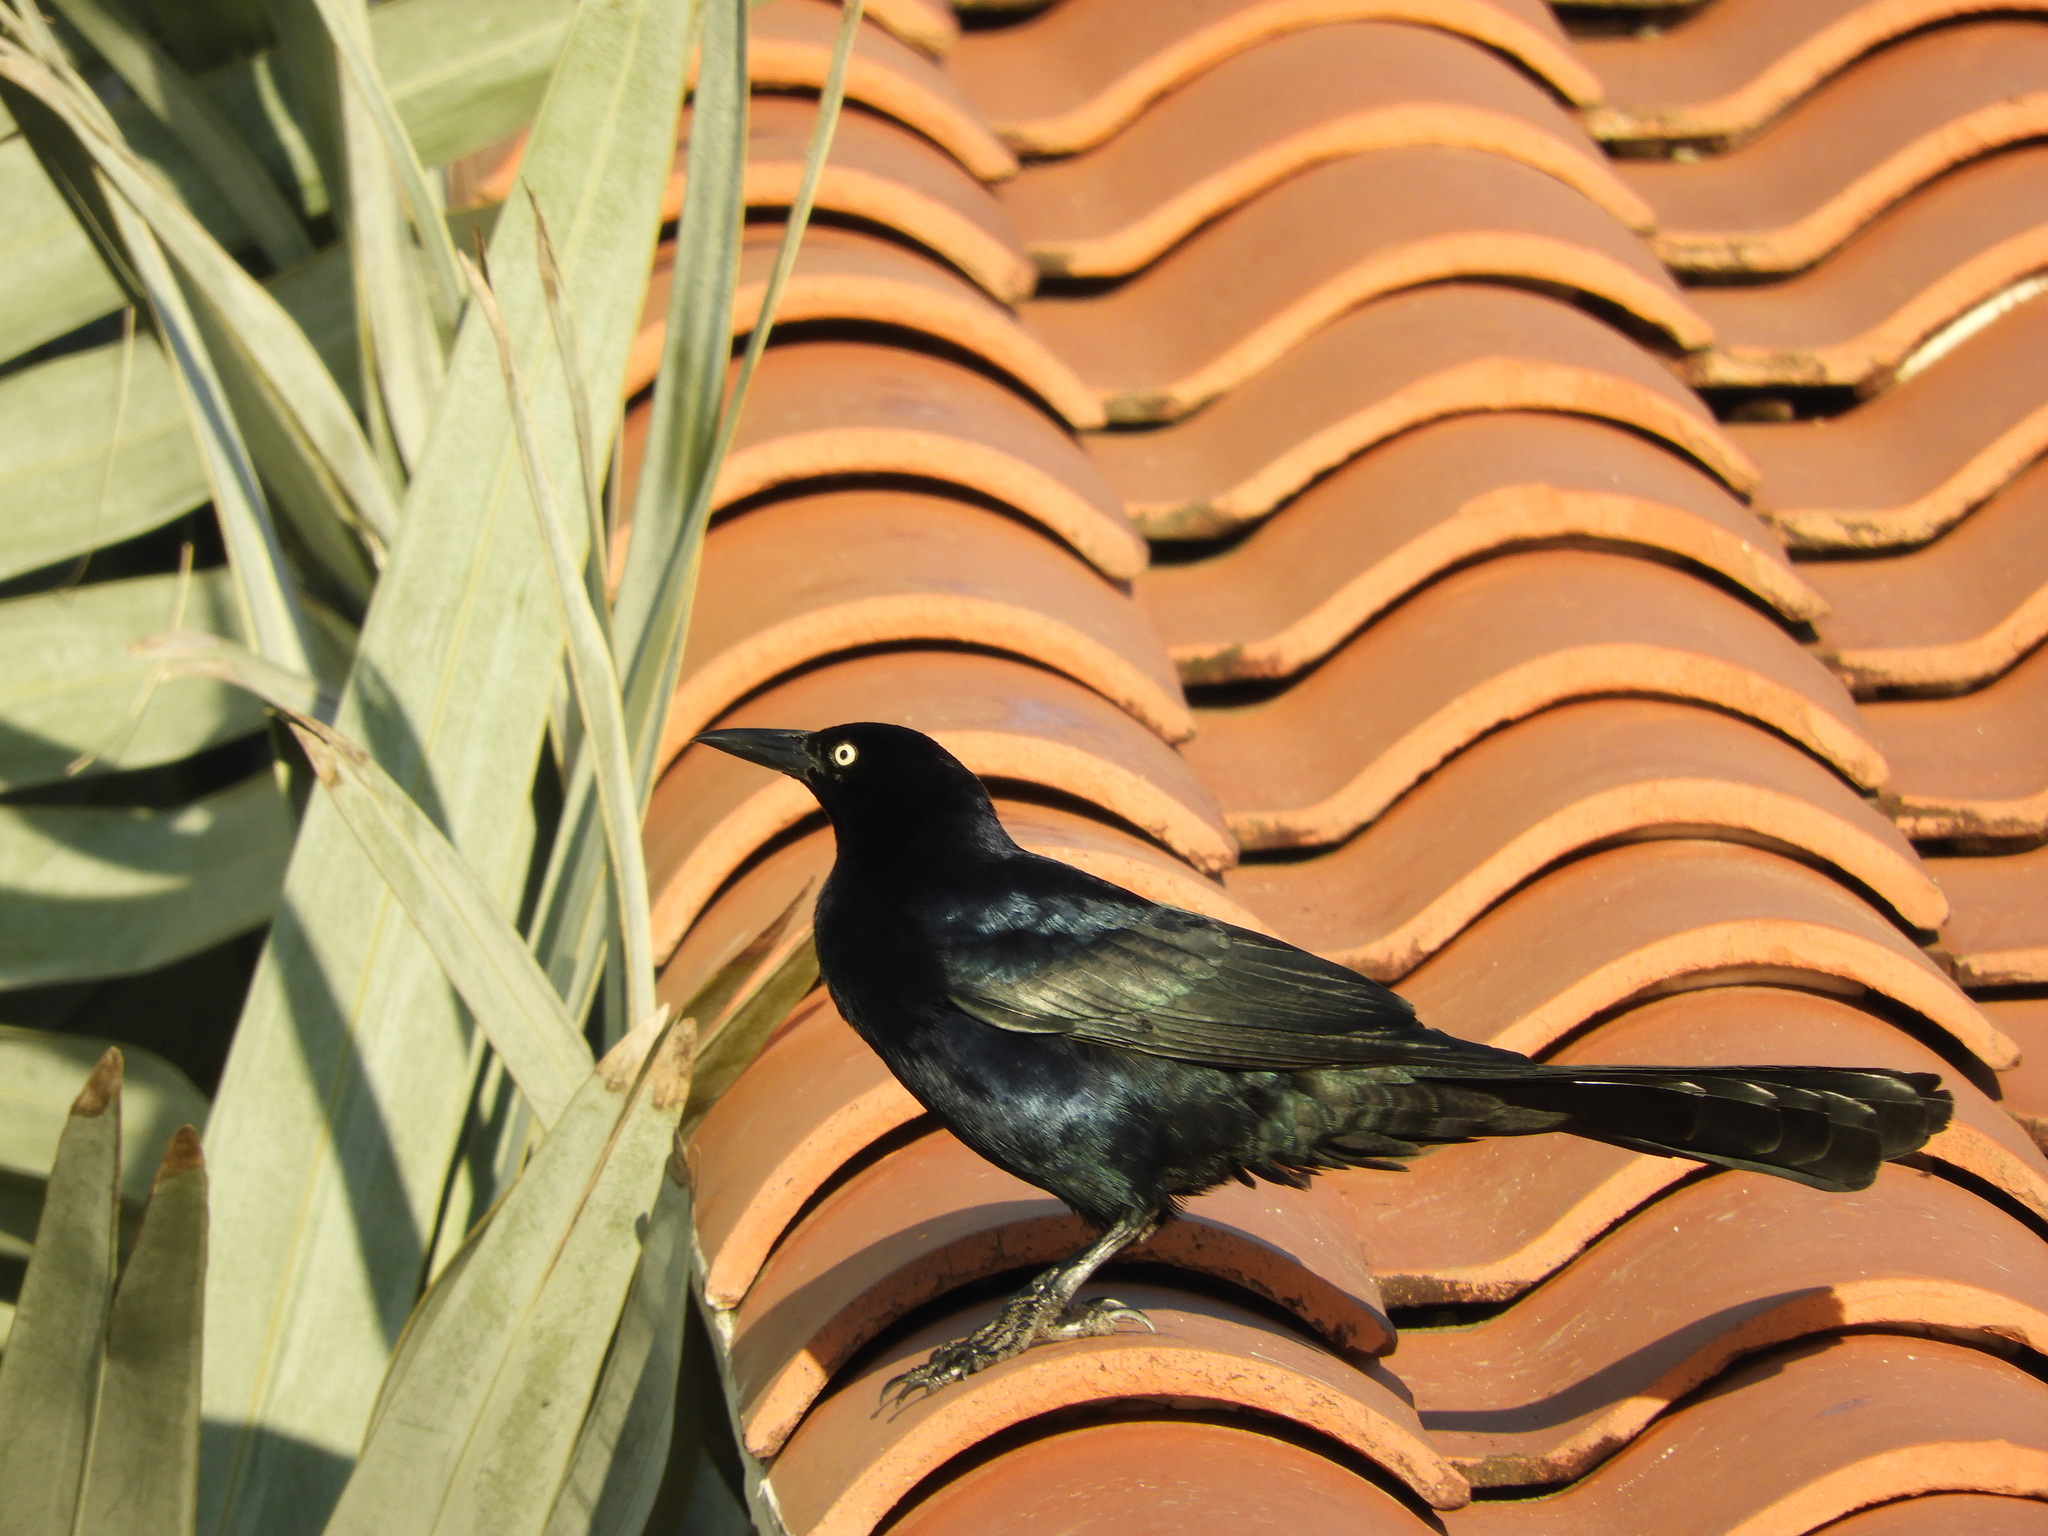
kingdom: Animalia
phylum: Chordata
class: Aves
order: Passeriformes
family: Icteridae
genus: Quiscalus
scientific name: Quiscalus mexicanus
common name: Great-tailed grackle
